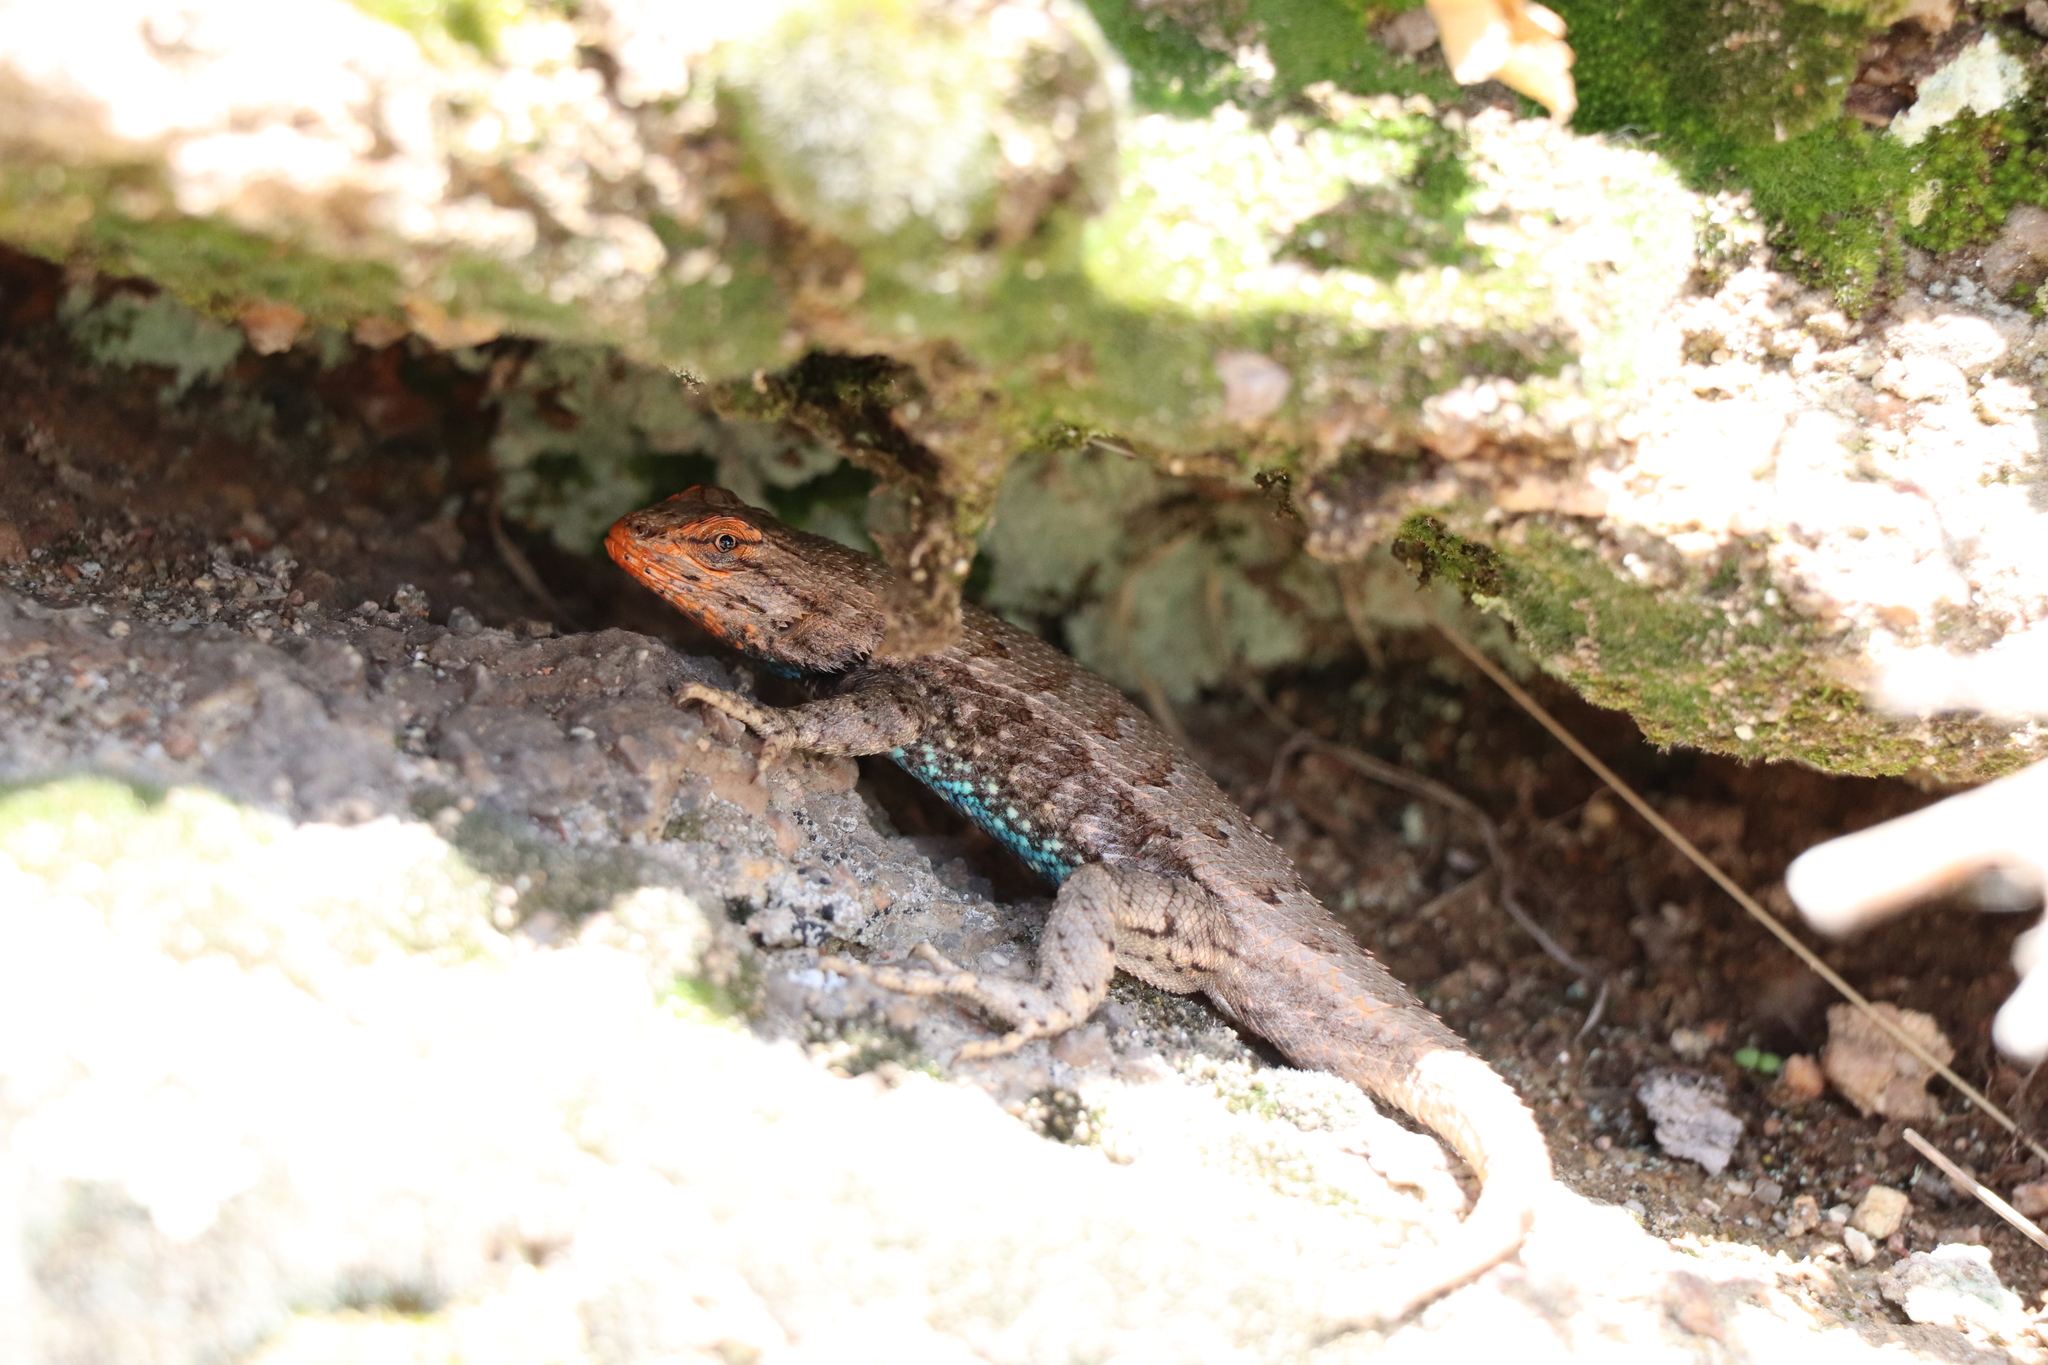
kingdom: Animalia
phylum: Chordata
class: Squamata
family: Phrynosomatidae
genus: Sceloporus
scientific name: Sceloporus consobrinus
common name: Southern prairie lizard
